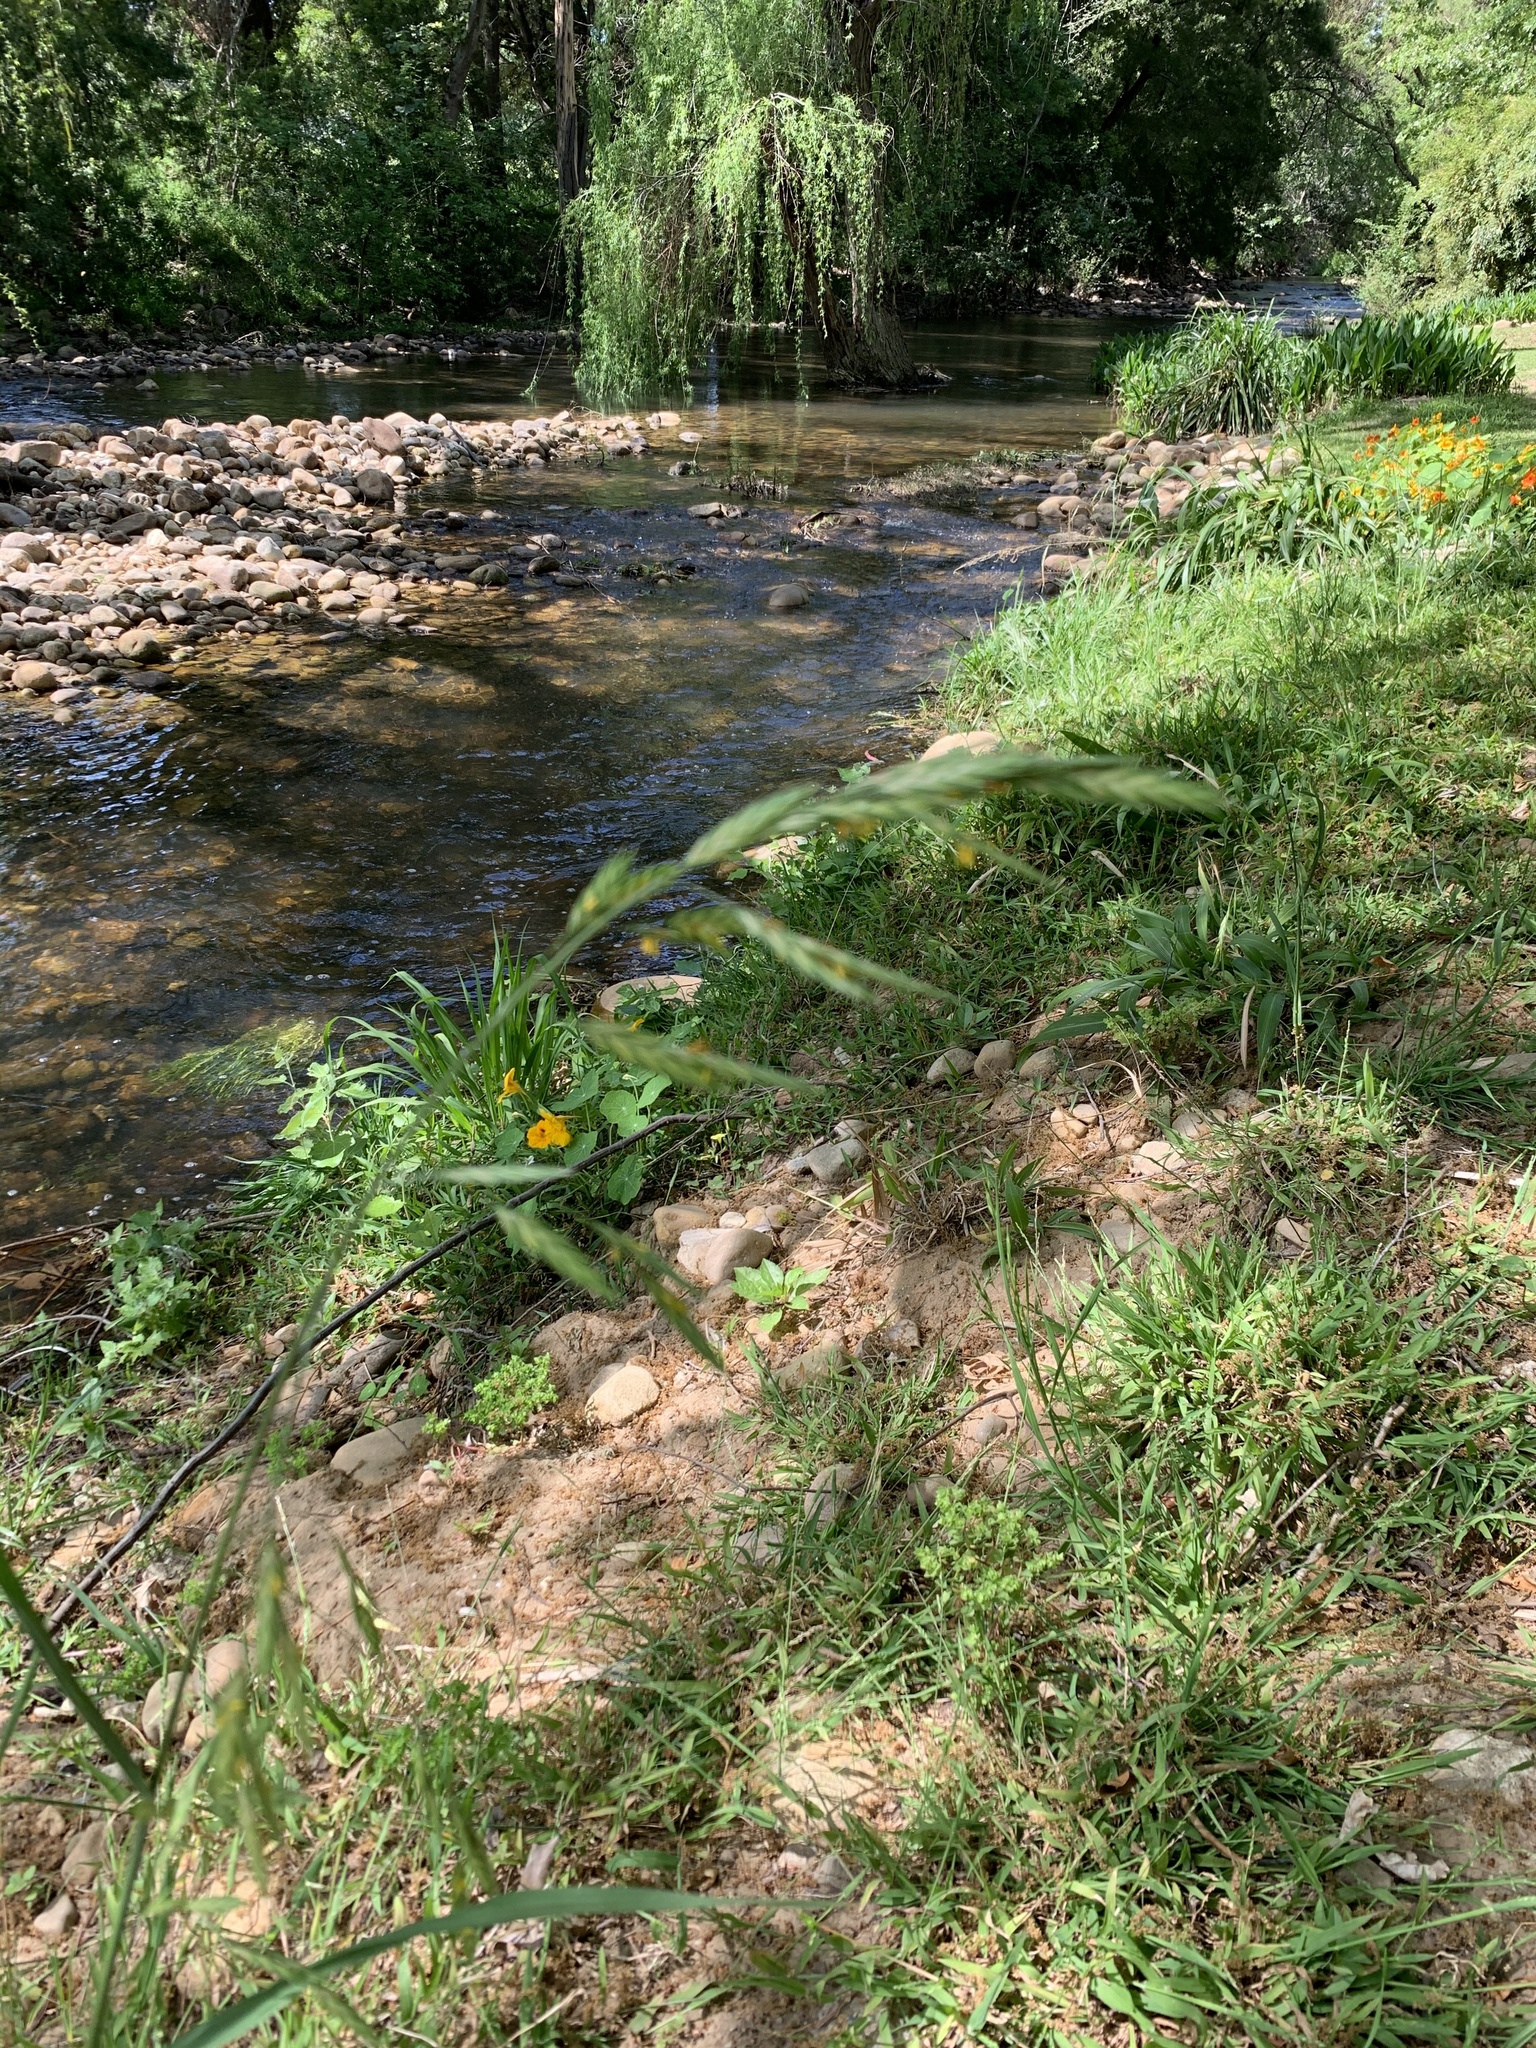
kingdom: Plantae
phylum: Tracheophyta
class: Liliopsida
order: Poales
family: Poaceae
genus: Bromus
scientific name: Bromus catharticus
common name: Rescuegrass
